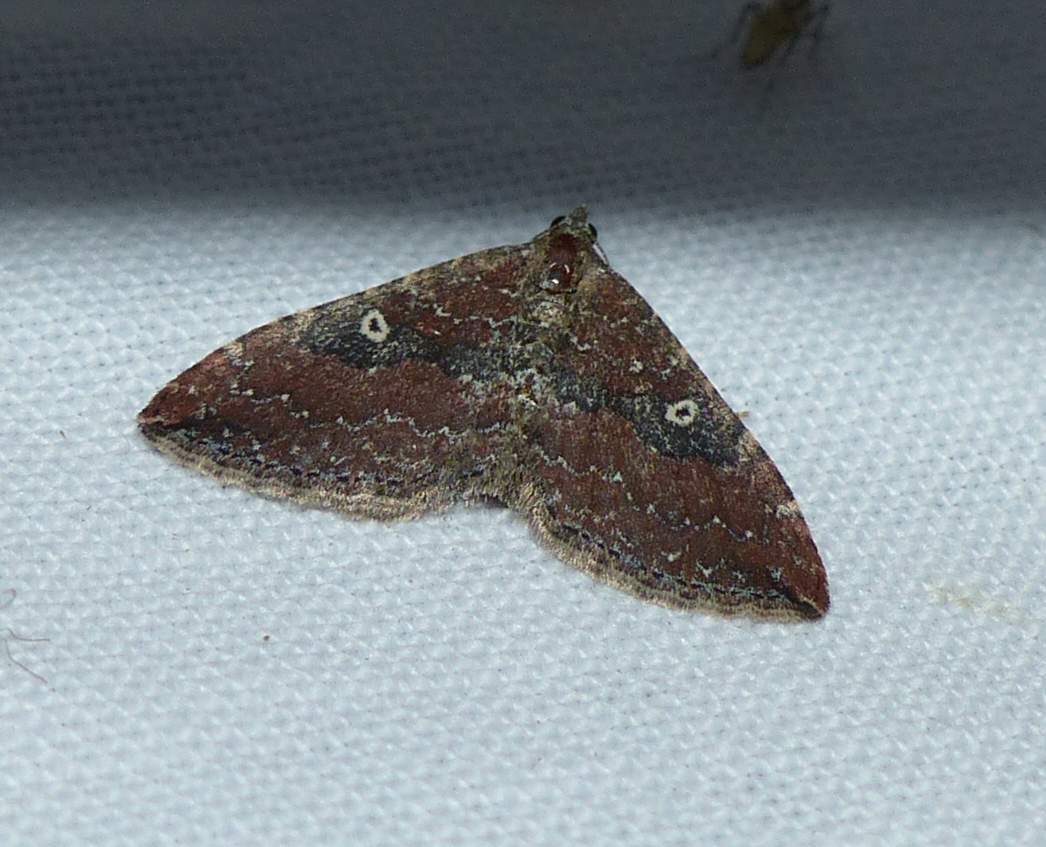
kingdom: Animalia
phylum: Arthropoda
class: Insecta
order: Lepidoptera
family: Geometridae
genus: Orthonama
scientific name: Orthonama obstipata
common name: The gem
